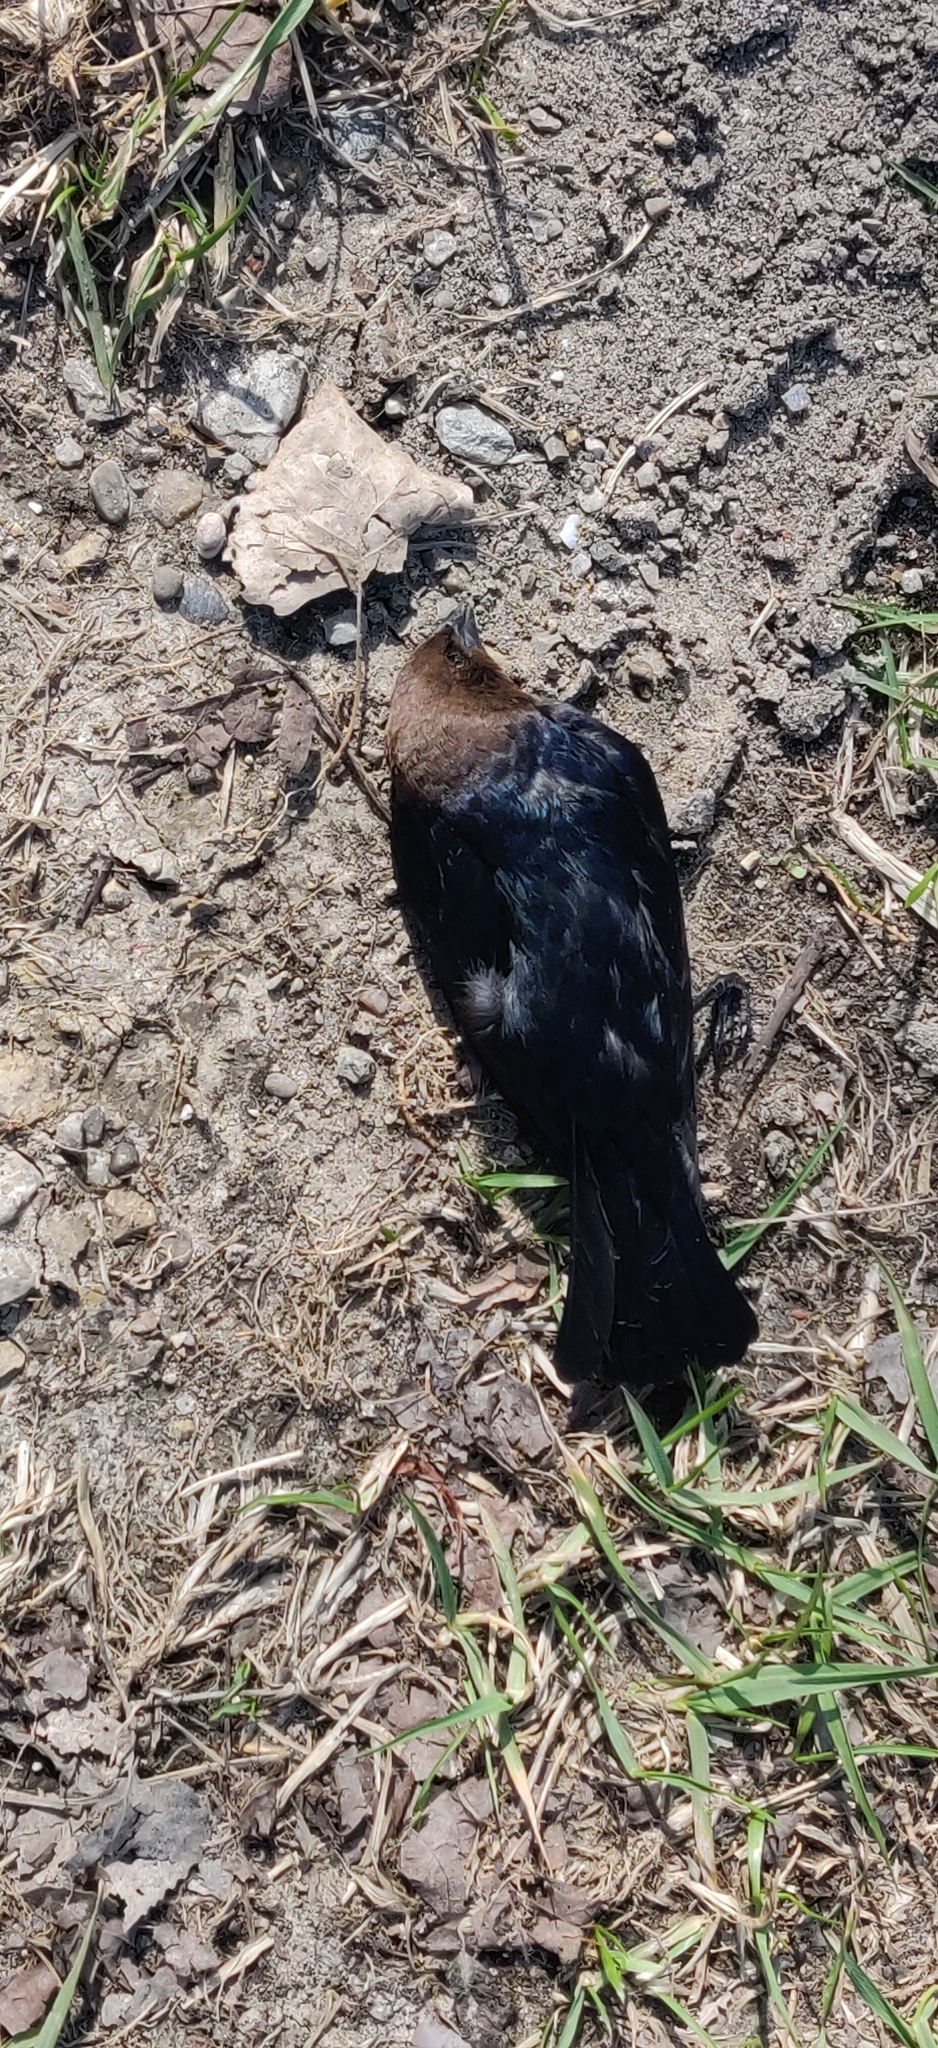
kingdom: Animalia
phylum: Chordata
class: Aves
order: Passeriformes
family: Icteridae
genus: Molothrus
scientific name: Molothrus ater
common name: Brown-headed cowbird
